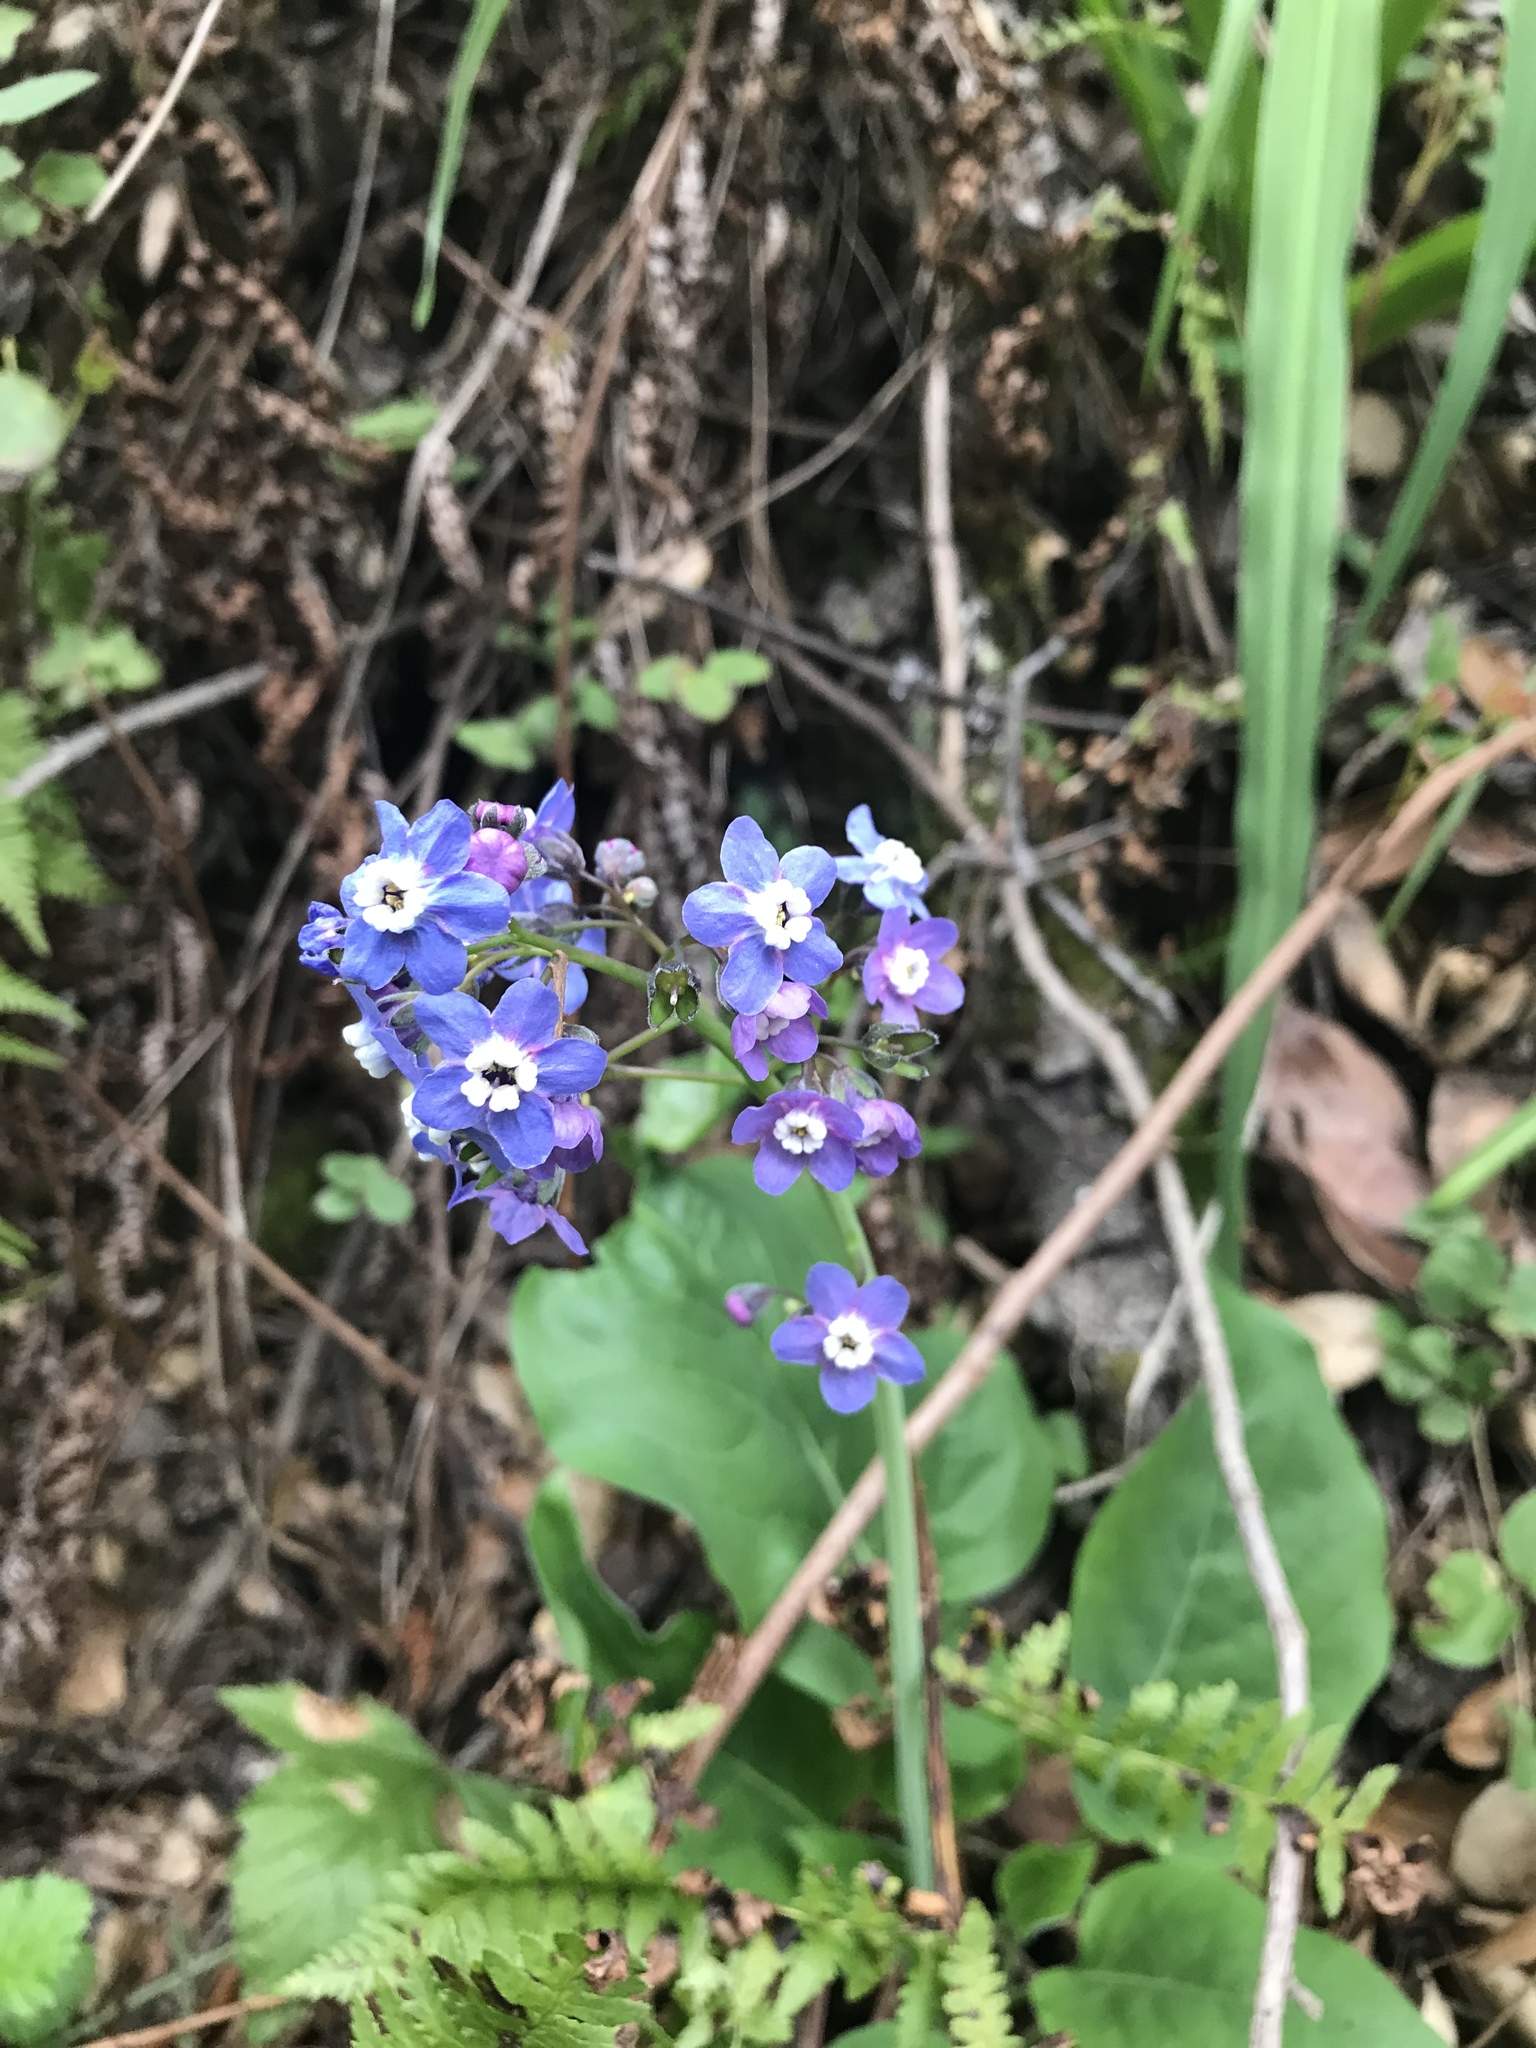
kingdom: Plantae
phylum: Tracheophyta
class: Magnoliopsida
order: Boraginales
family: Boraginaceae
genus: Adelinia
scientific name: Adelinia grande
